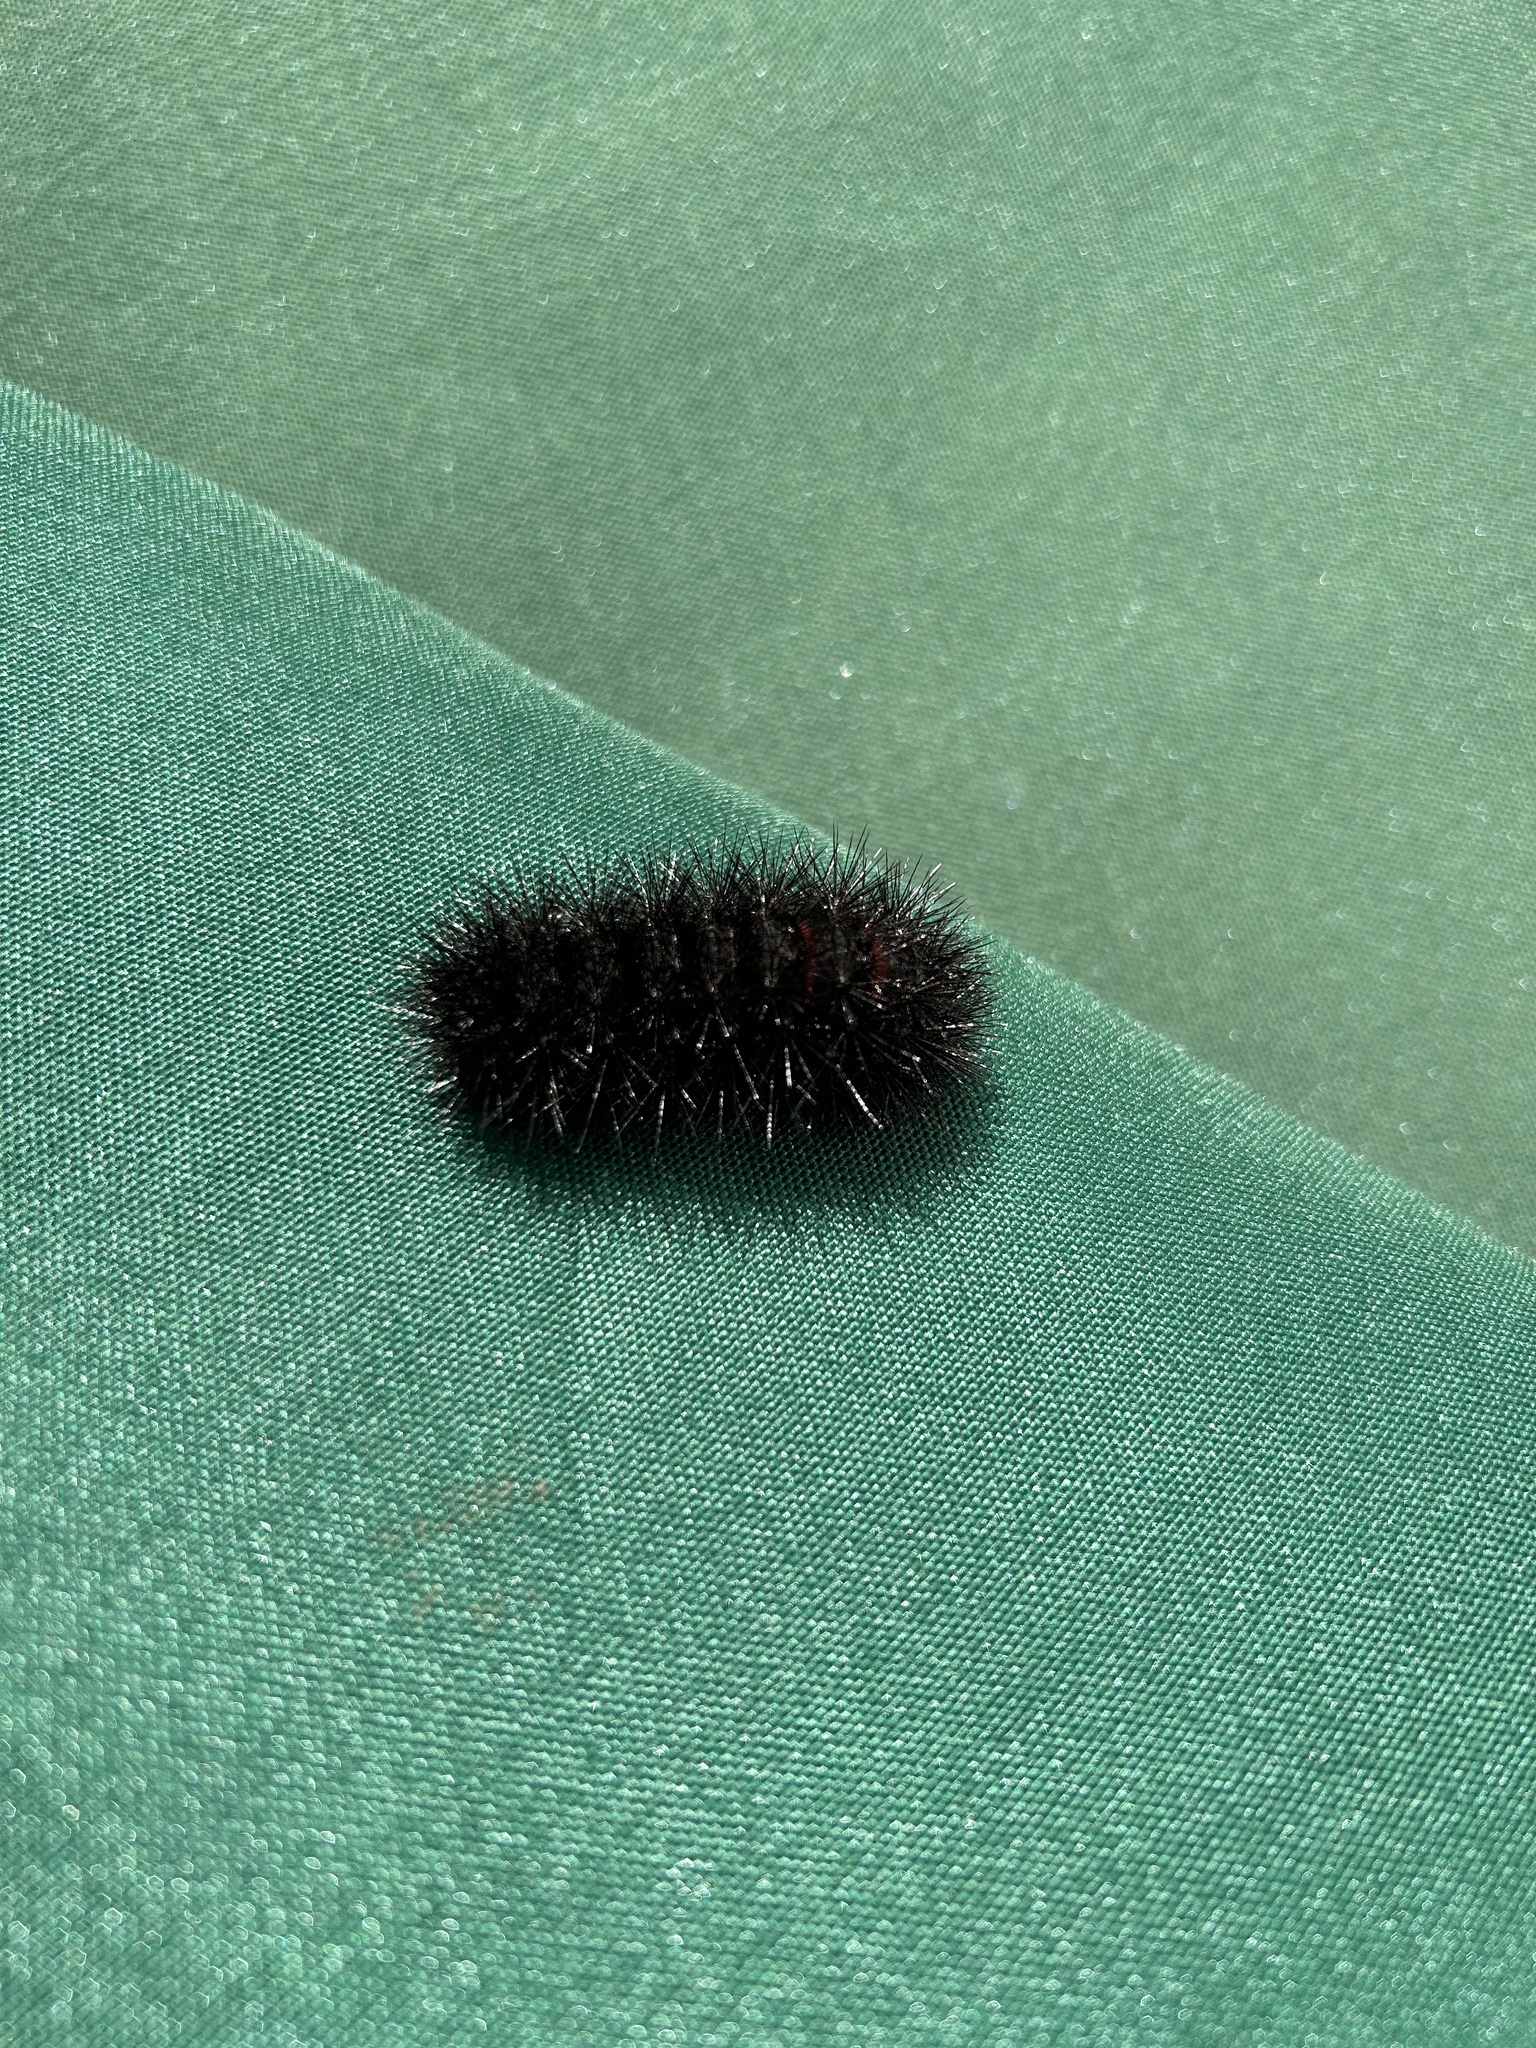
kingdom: Animalia
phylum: Arthropoda
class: Insecta
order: Lepidoptera
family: Erebidae
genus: Hypercompe
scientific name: Hypercompe scribonia
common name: Giant leopard moth
